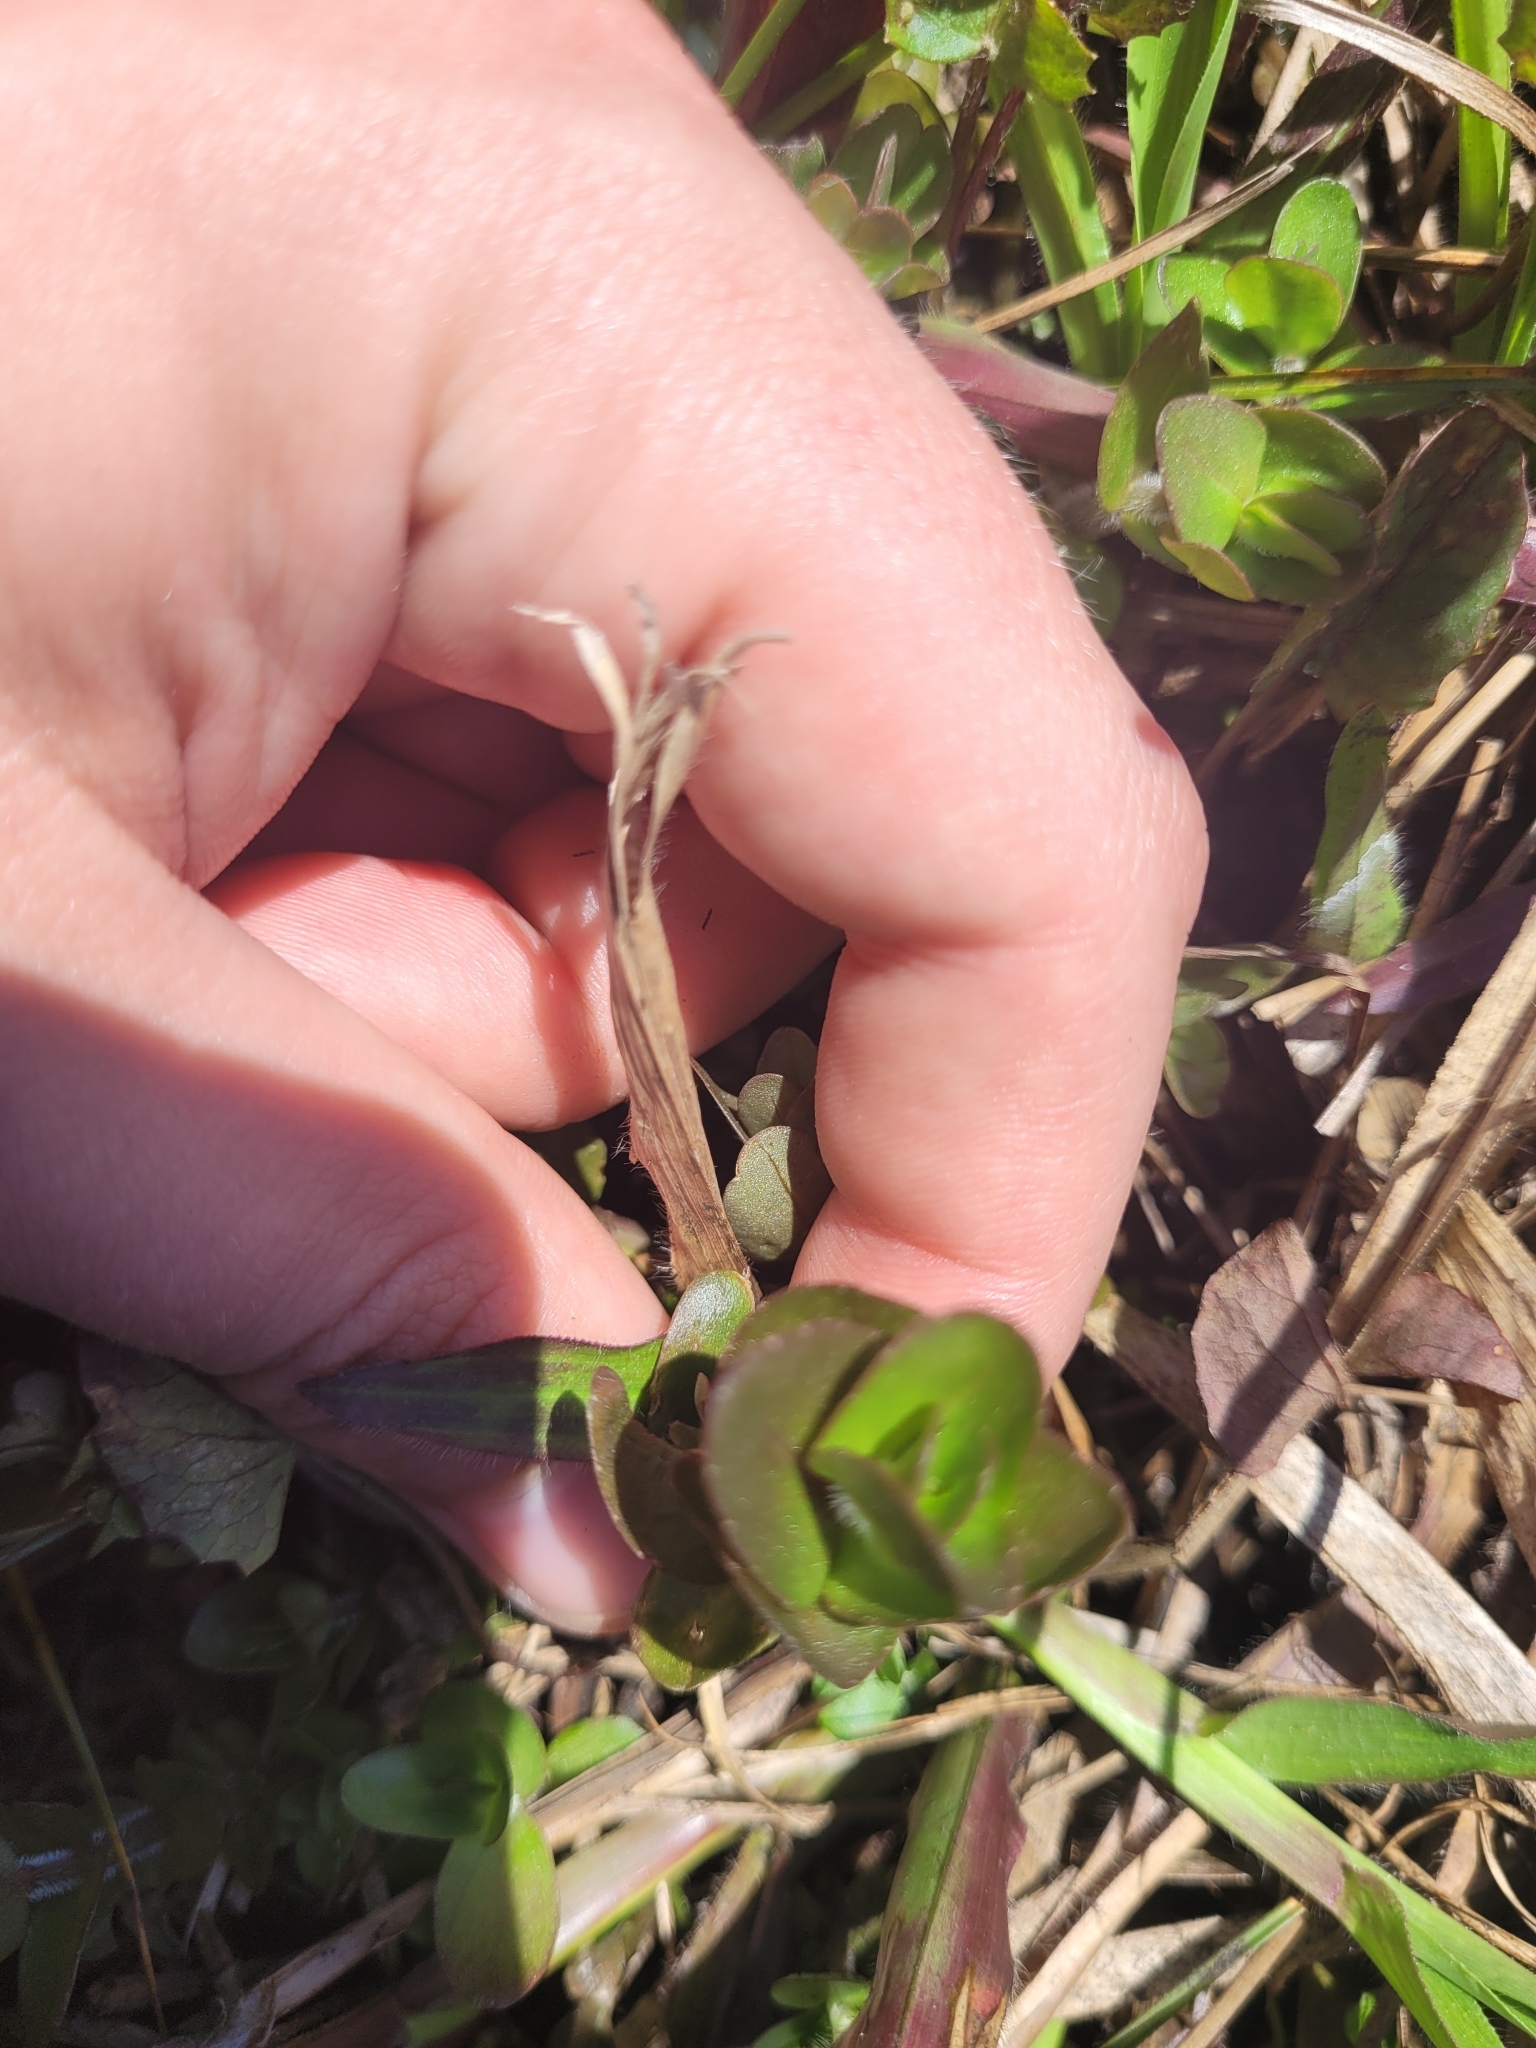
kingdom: Plantae
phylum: Tracheophyta
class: Magnoliopsida
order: Lamiales
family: Plantaginaceae
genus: Bacopa
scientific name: Bacopa caroliniana
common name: Lemon bacopa
